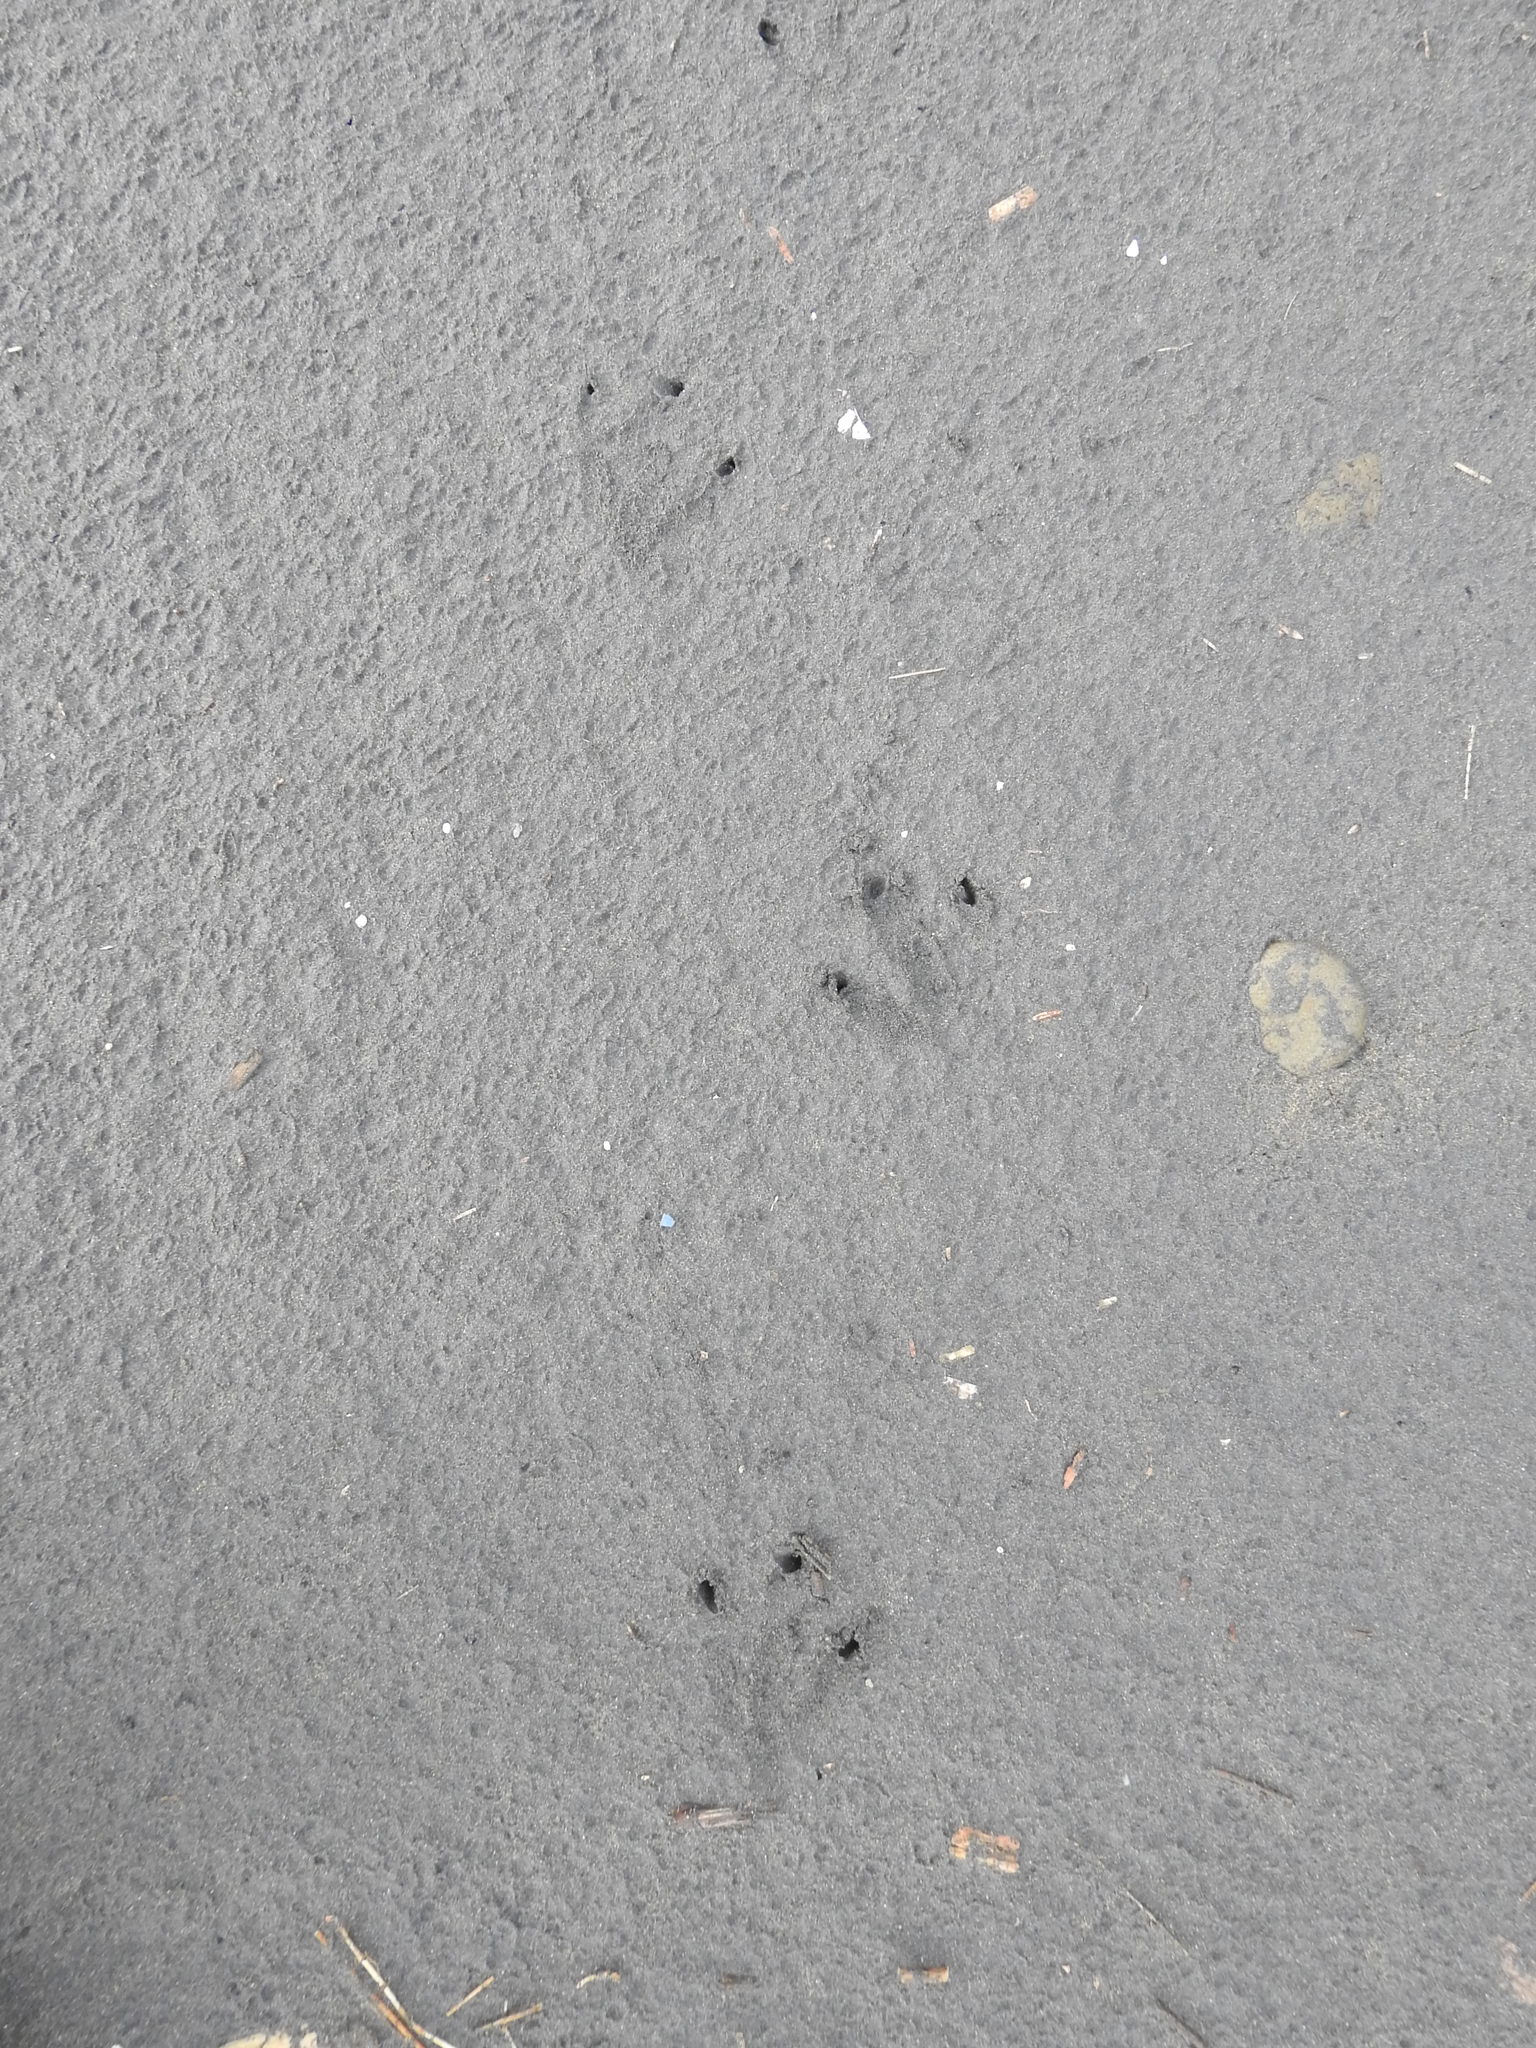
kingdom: Animalia
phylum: Chordata
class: Aves
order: Sphenisciformes
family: Spheniscidae
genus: Eudyptula
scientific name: Eudyptula minor
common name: Little penguin
